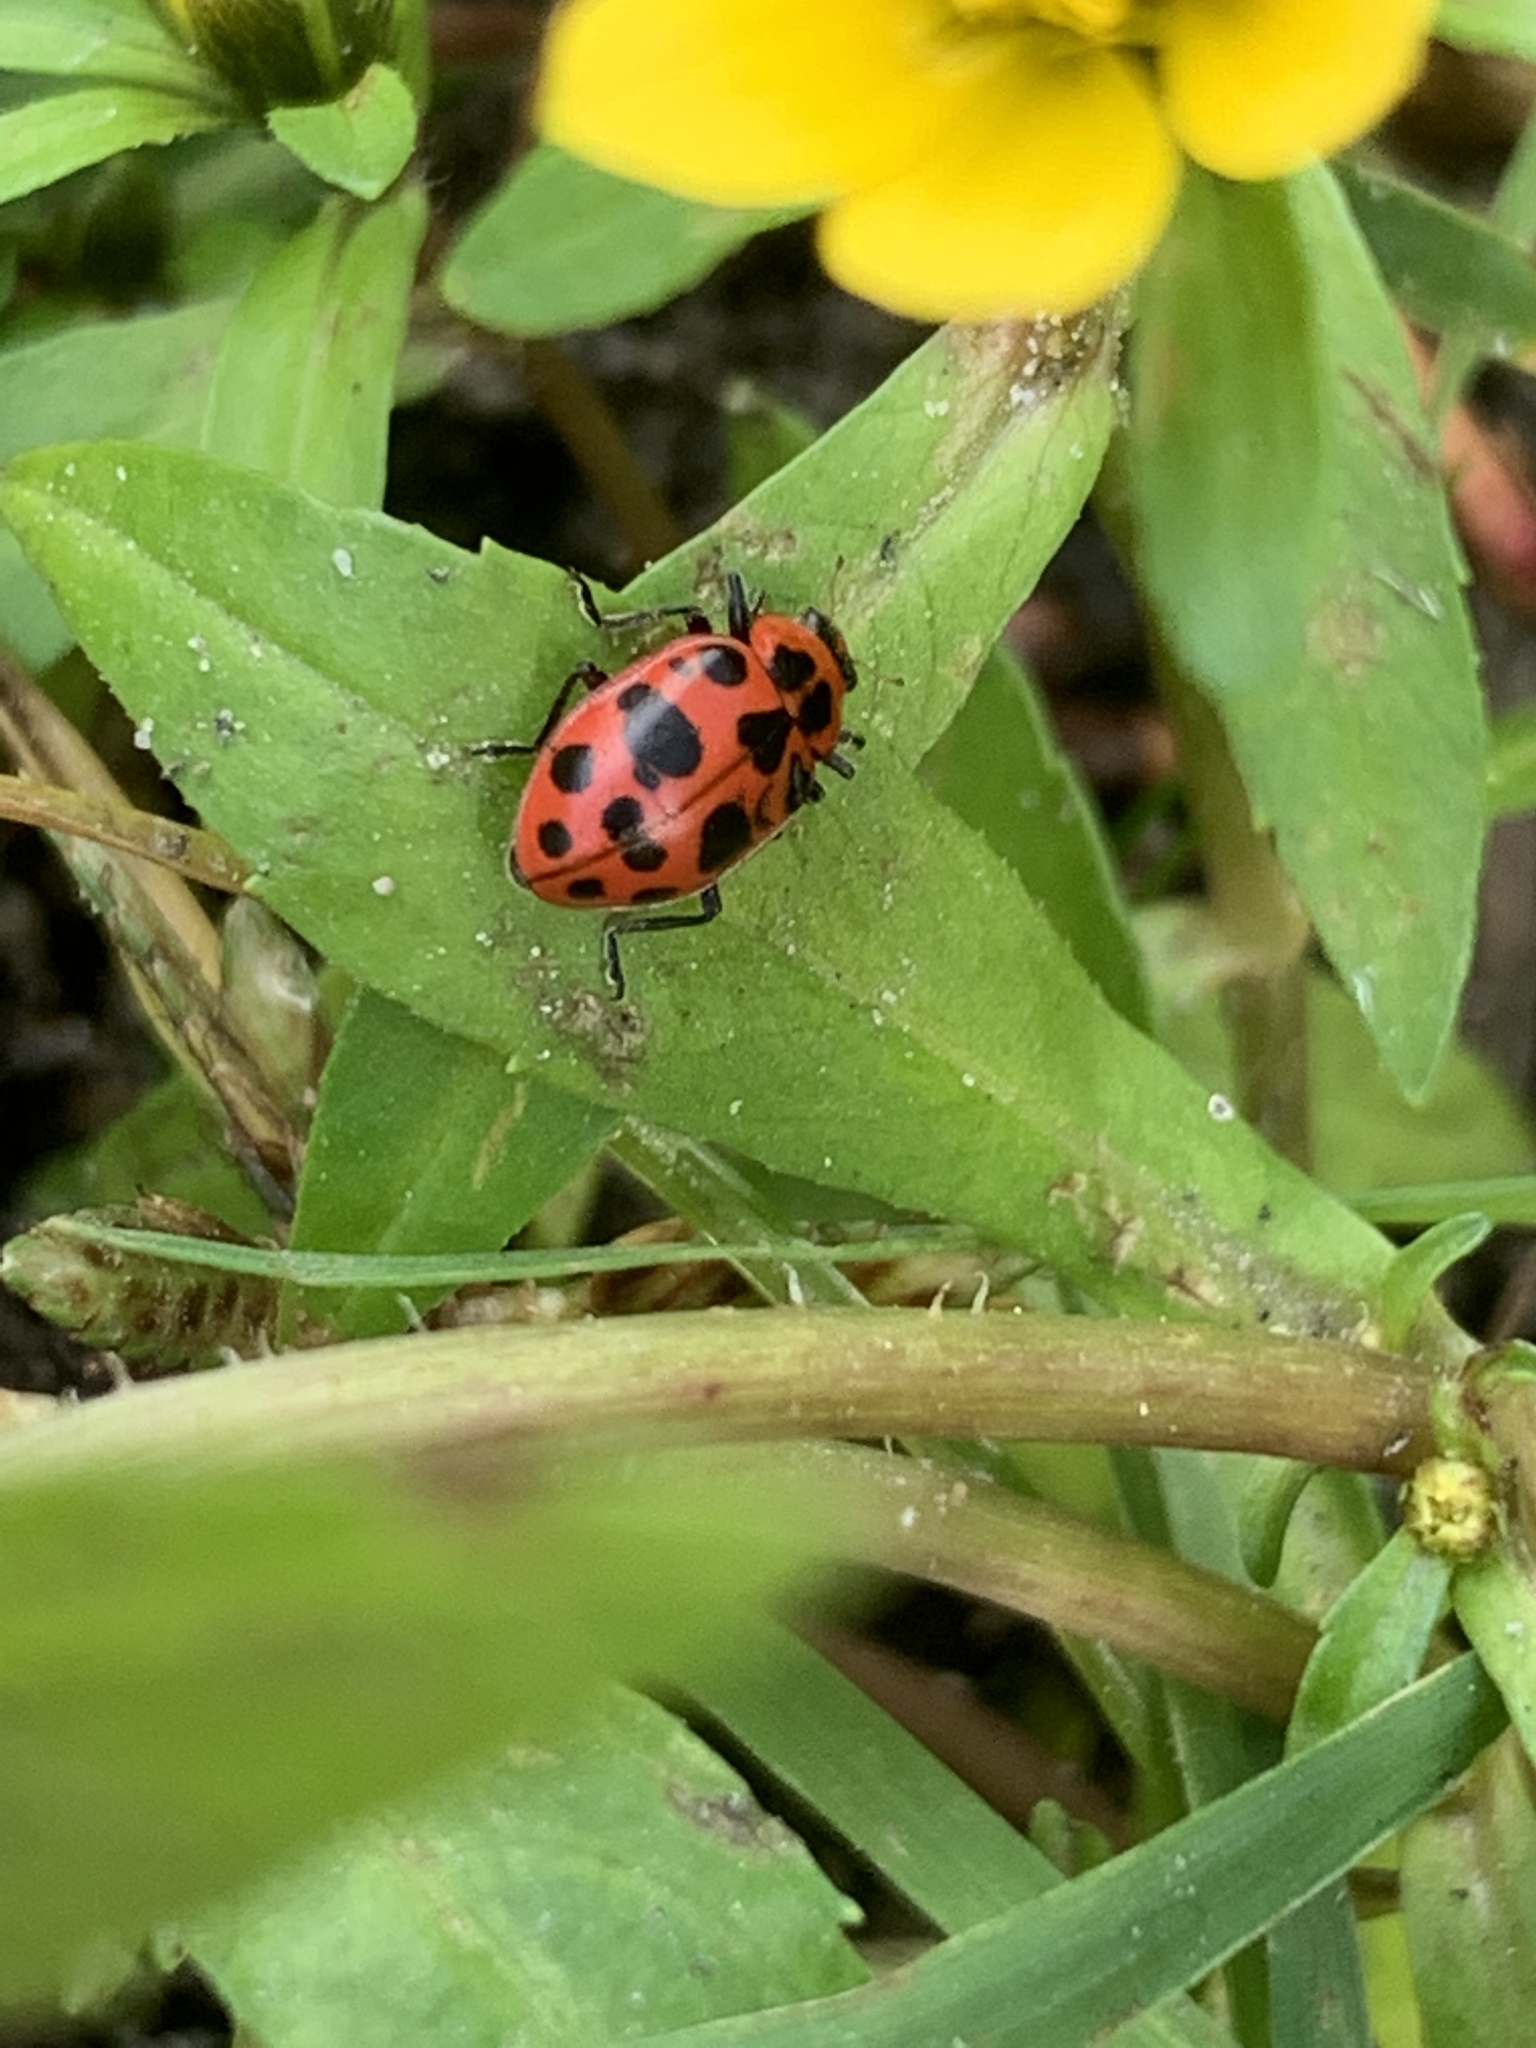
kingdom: Animalia
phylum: Arthropoda
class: Insecta
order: Coleoptera
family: Coccinellidae
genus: Coleomegilla
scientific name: Coleomegilla maculata
